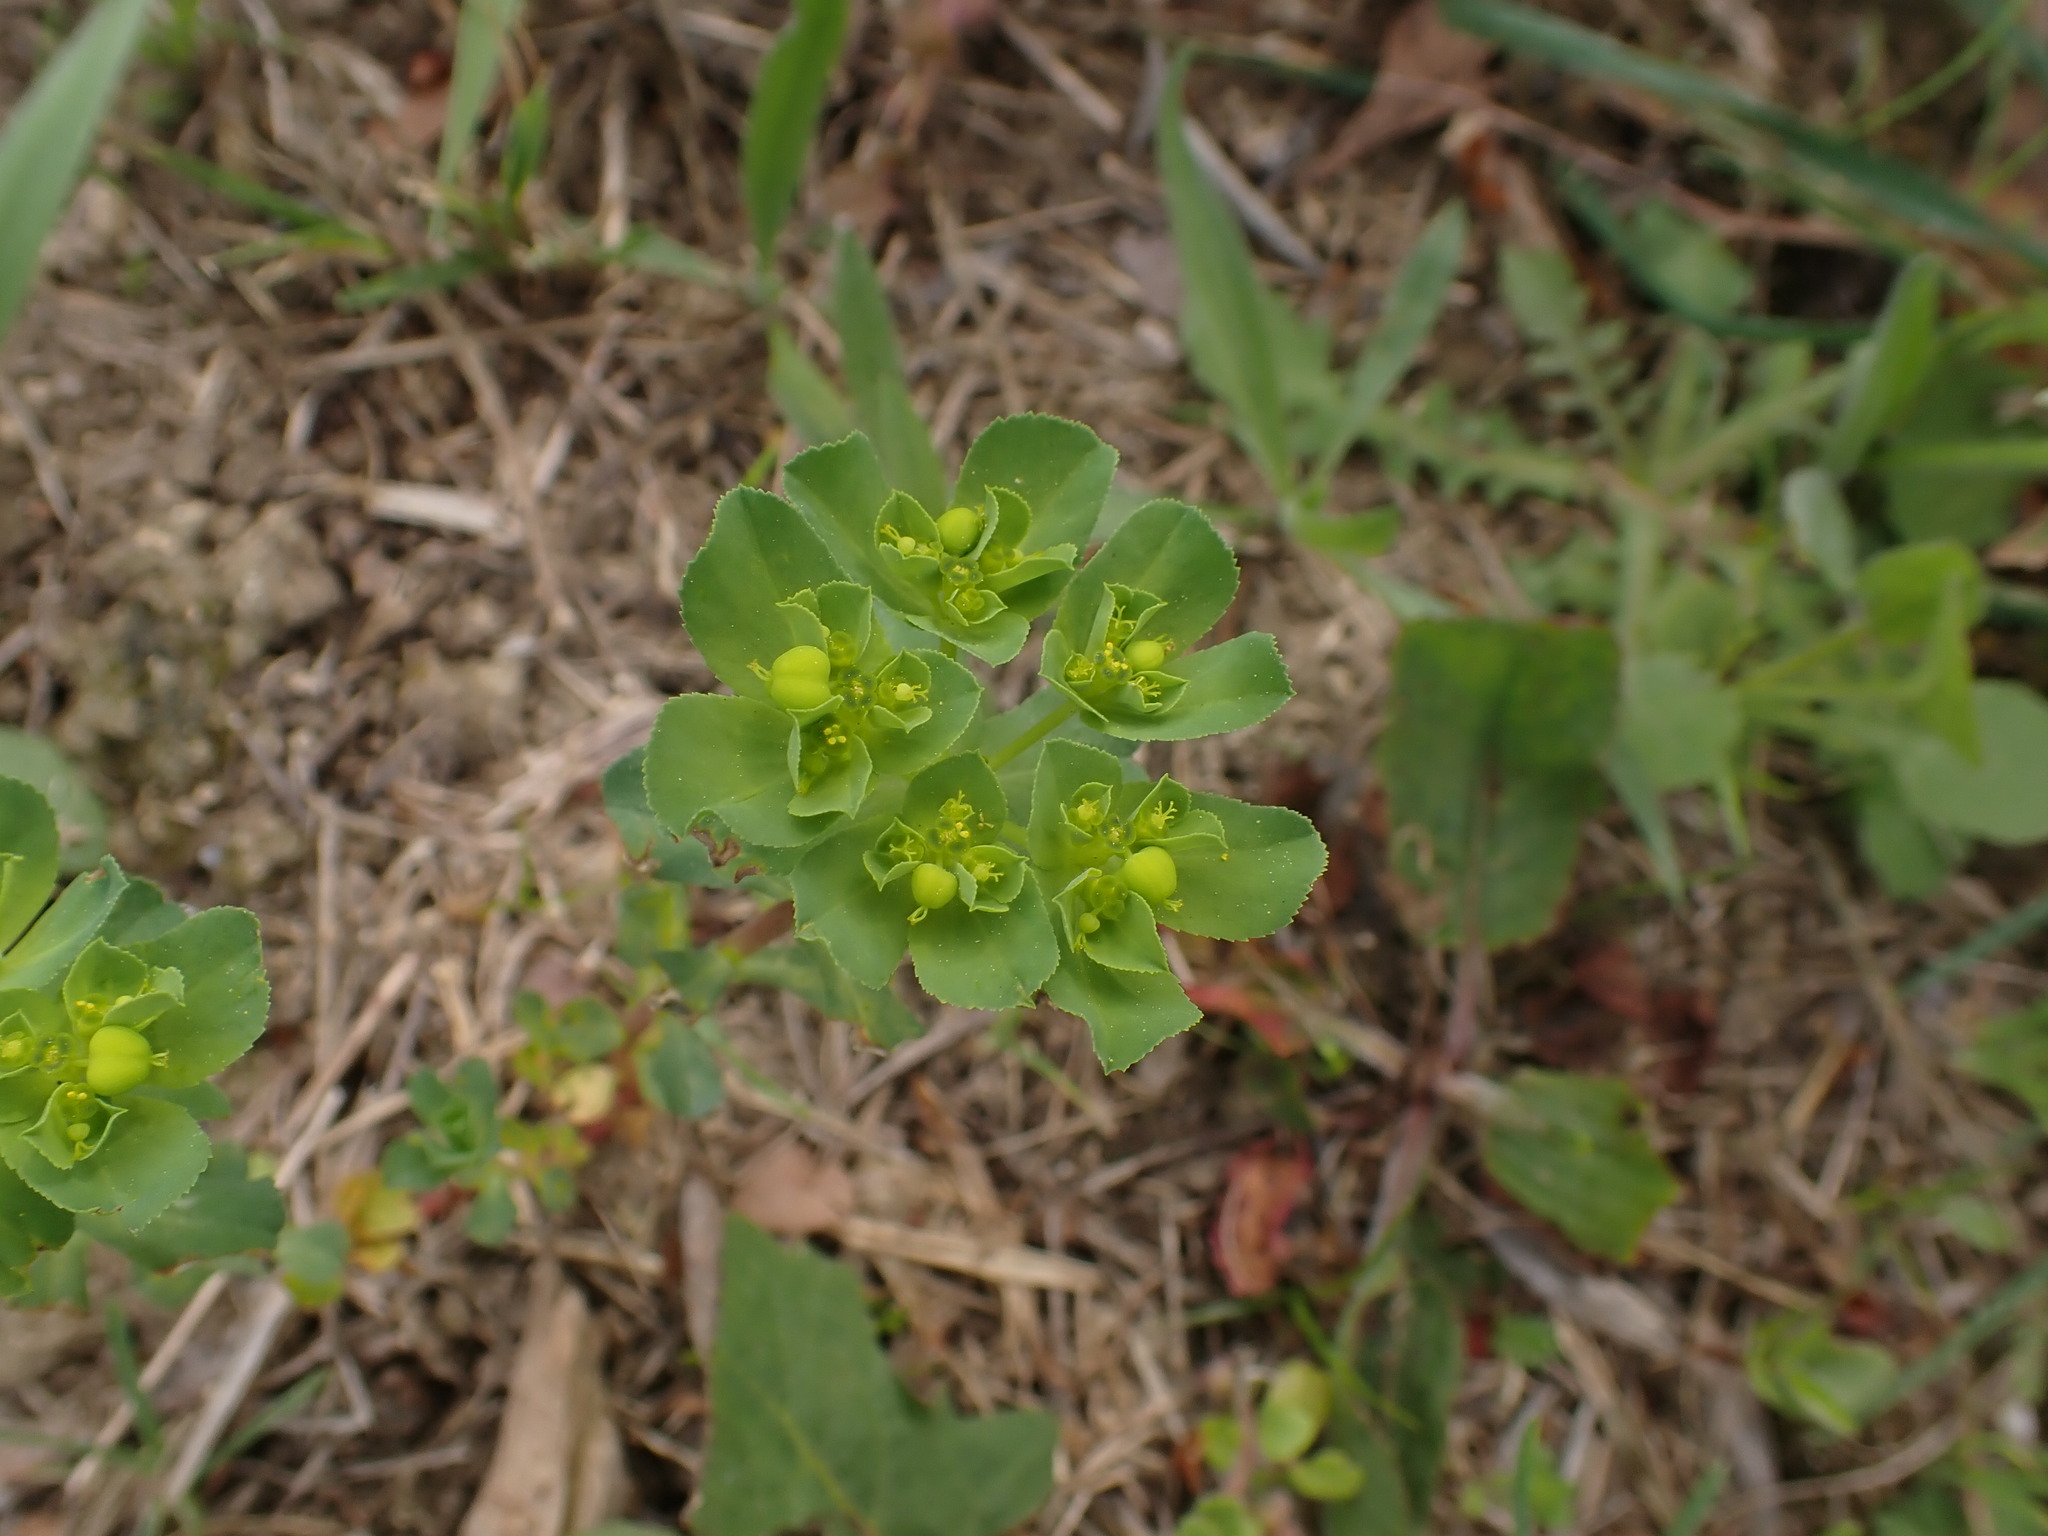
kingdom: Plantae
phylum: Tracheophyta
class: Magnoliopsida
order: Malpighiales
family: Euphorbiaceae
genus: Euphorbia
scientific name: Euphorbia helioscopia
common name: Sun spurge
